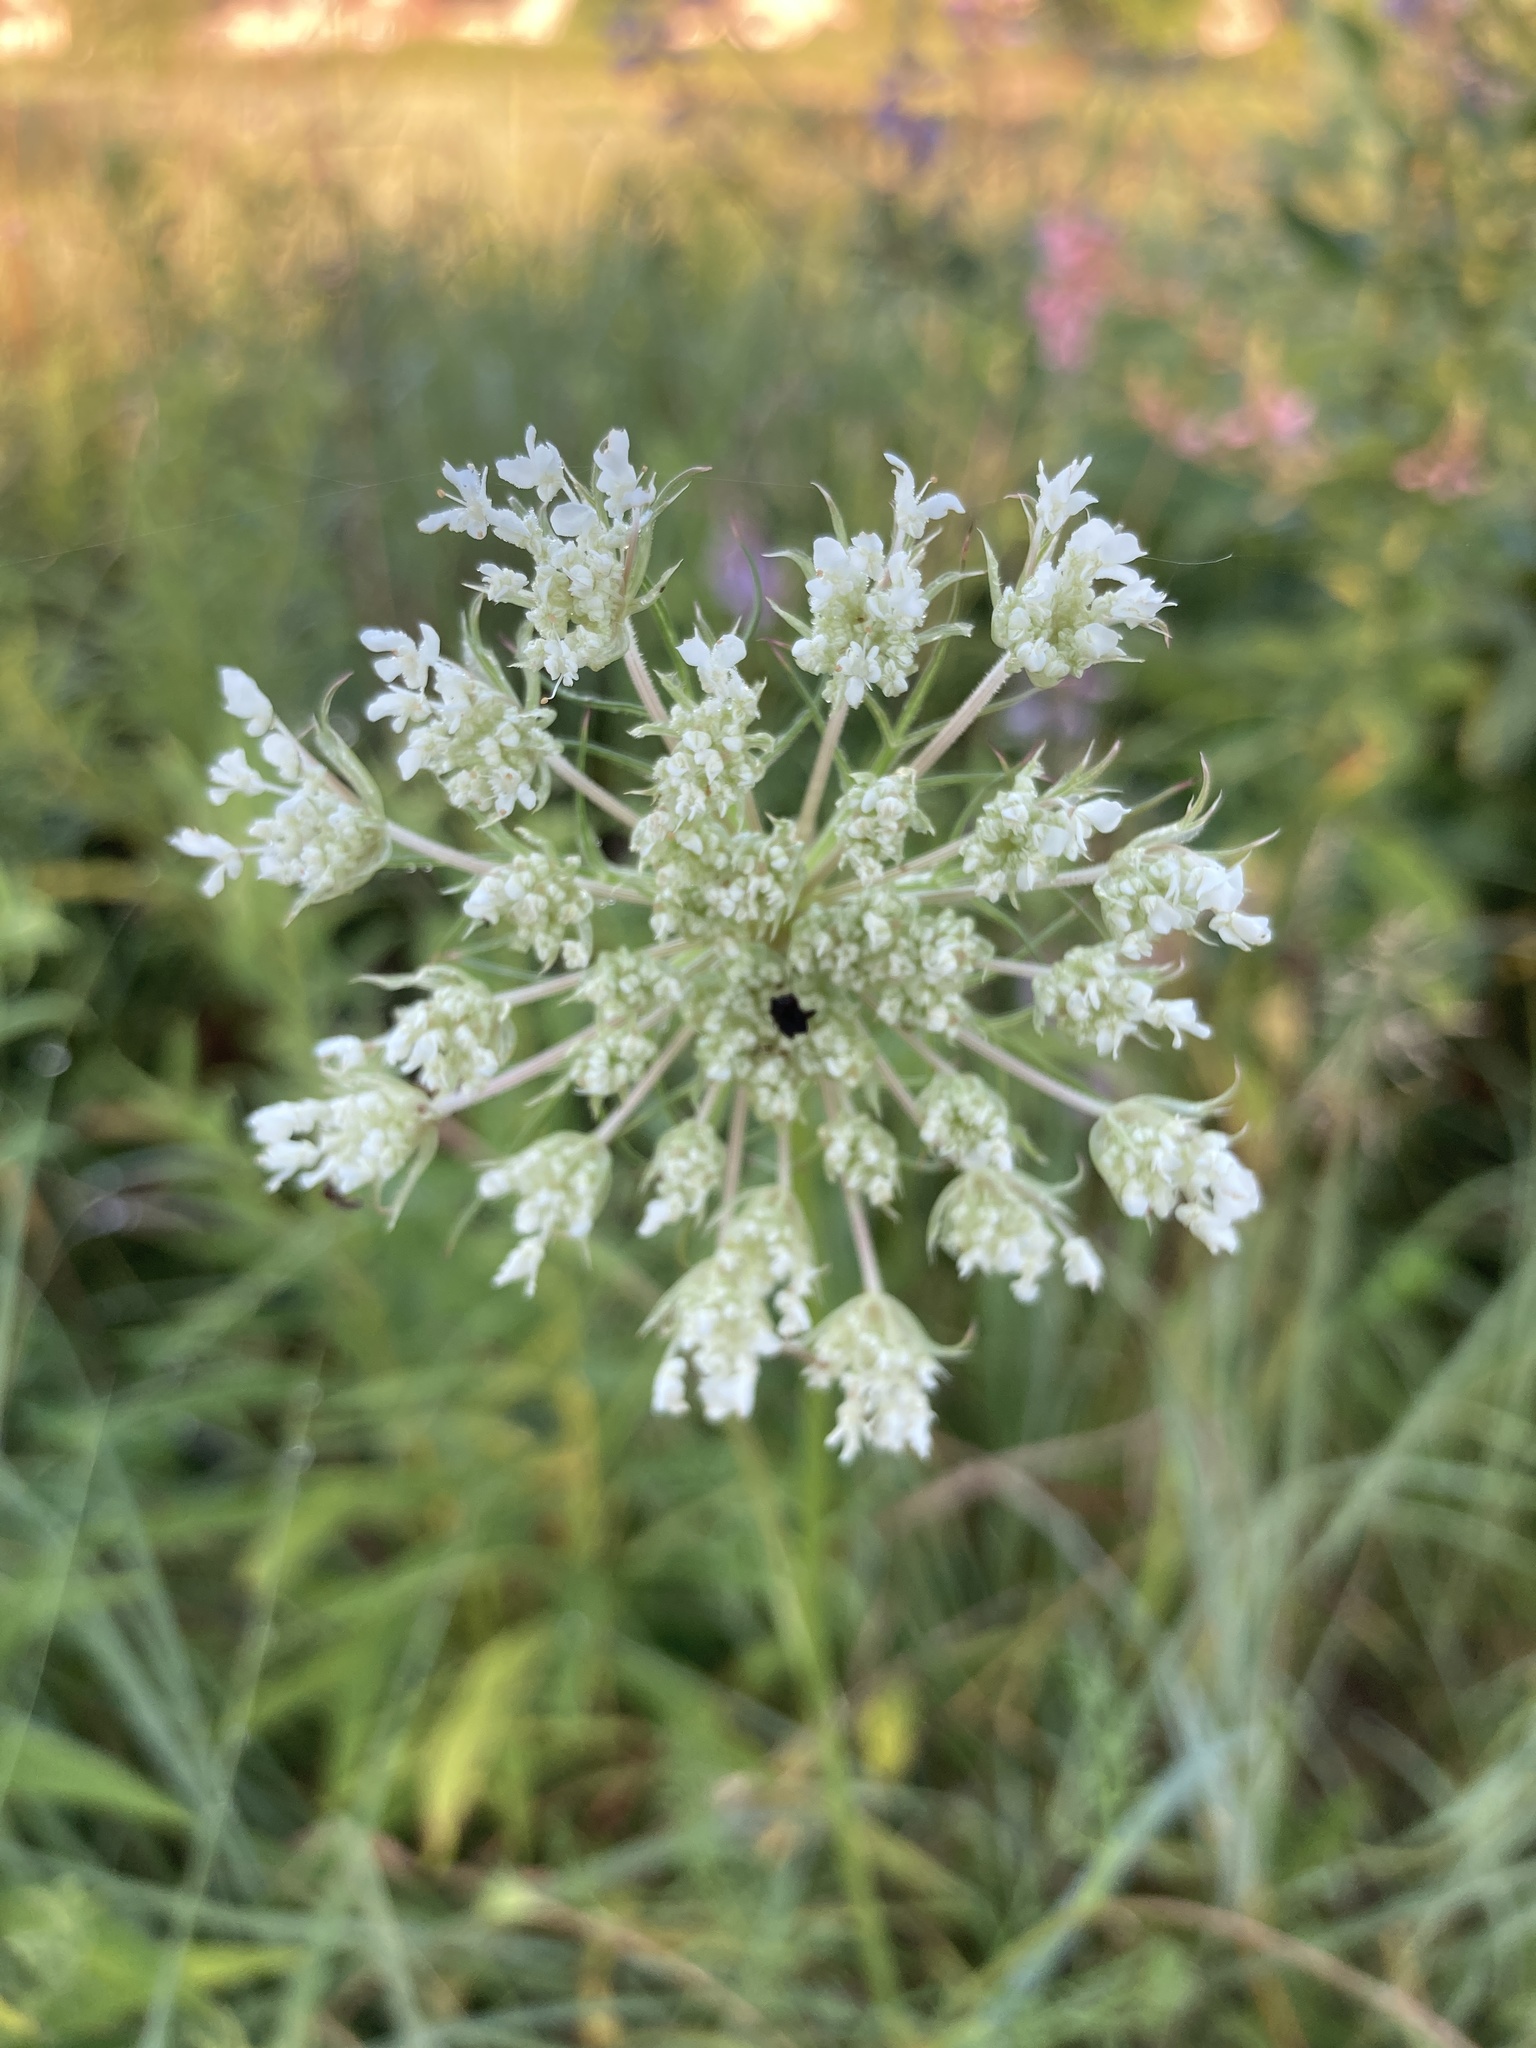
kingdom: Plantae
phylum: Tracheophyta
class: Magnoliopsida
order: Apiales
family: Apiaceae
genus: Daucus
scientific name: Daucus carota
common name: Wild carrot
